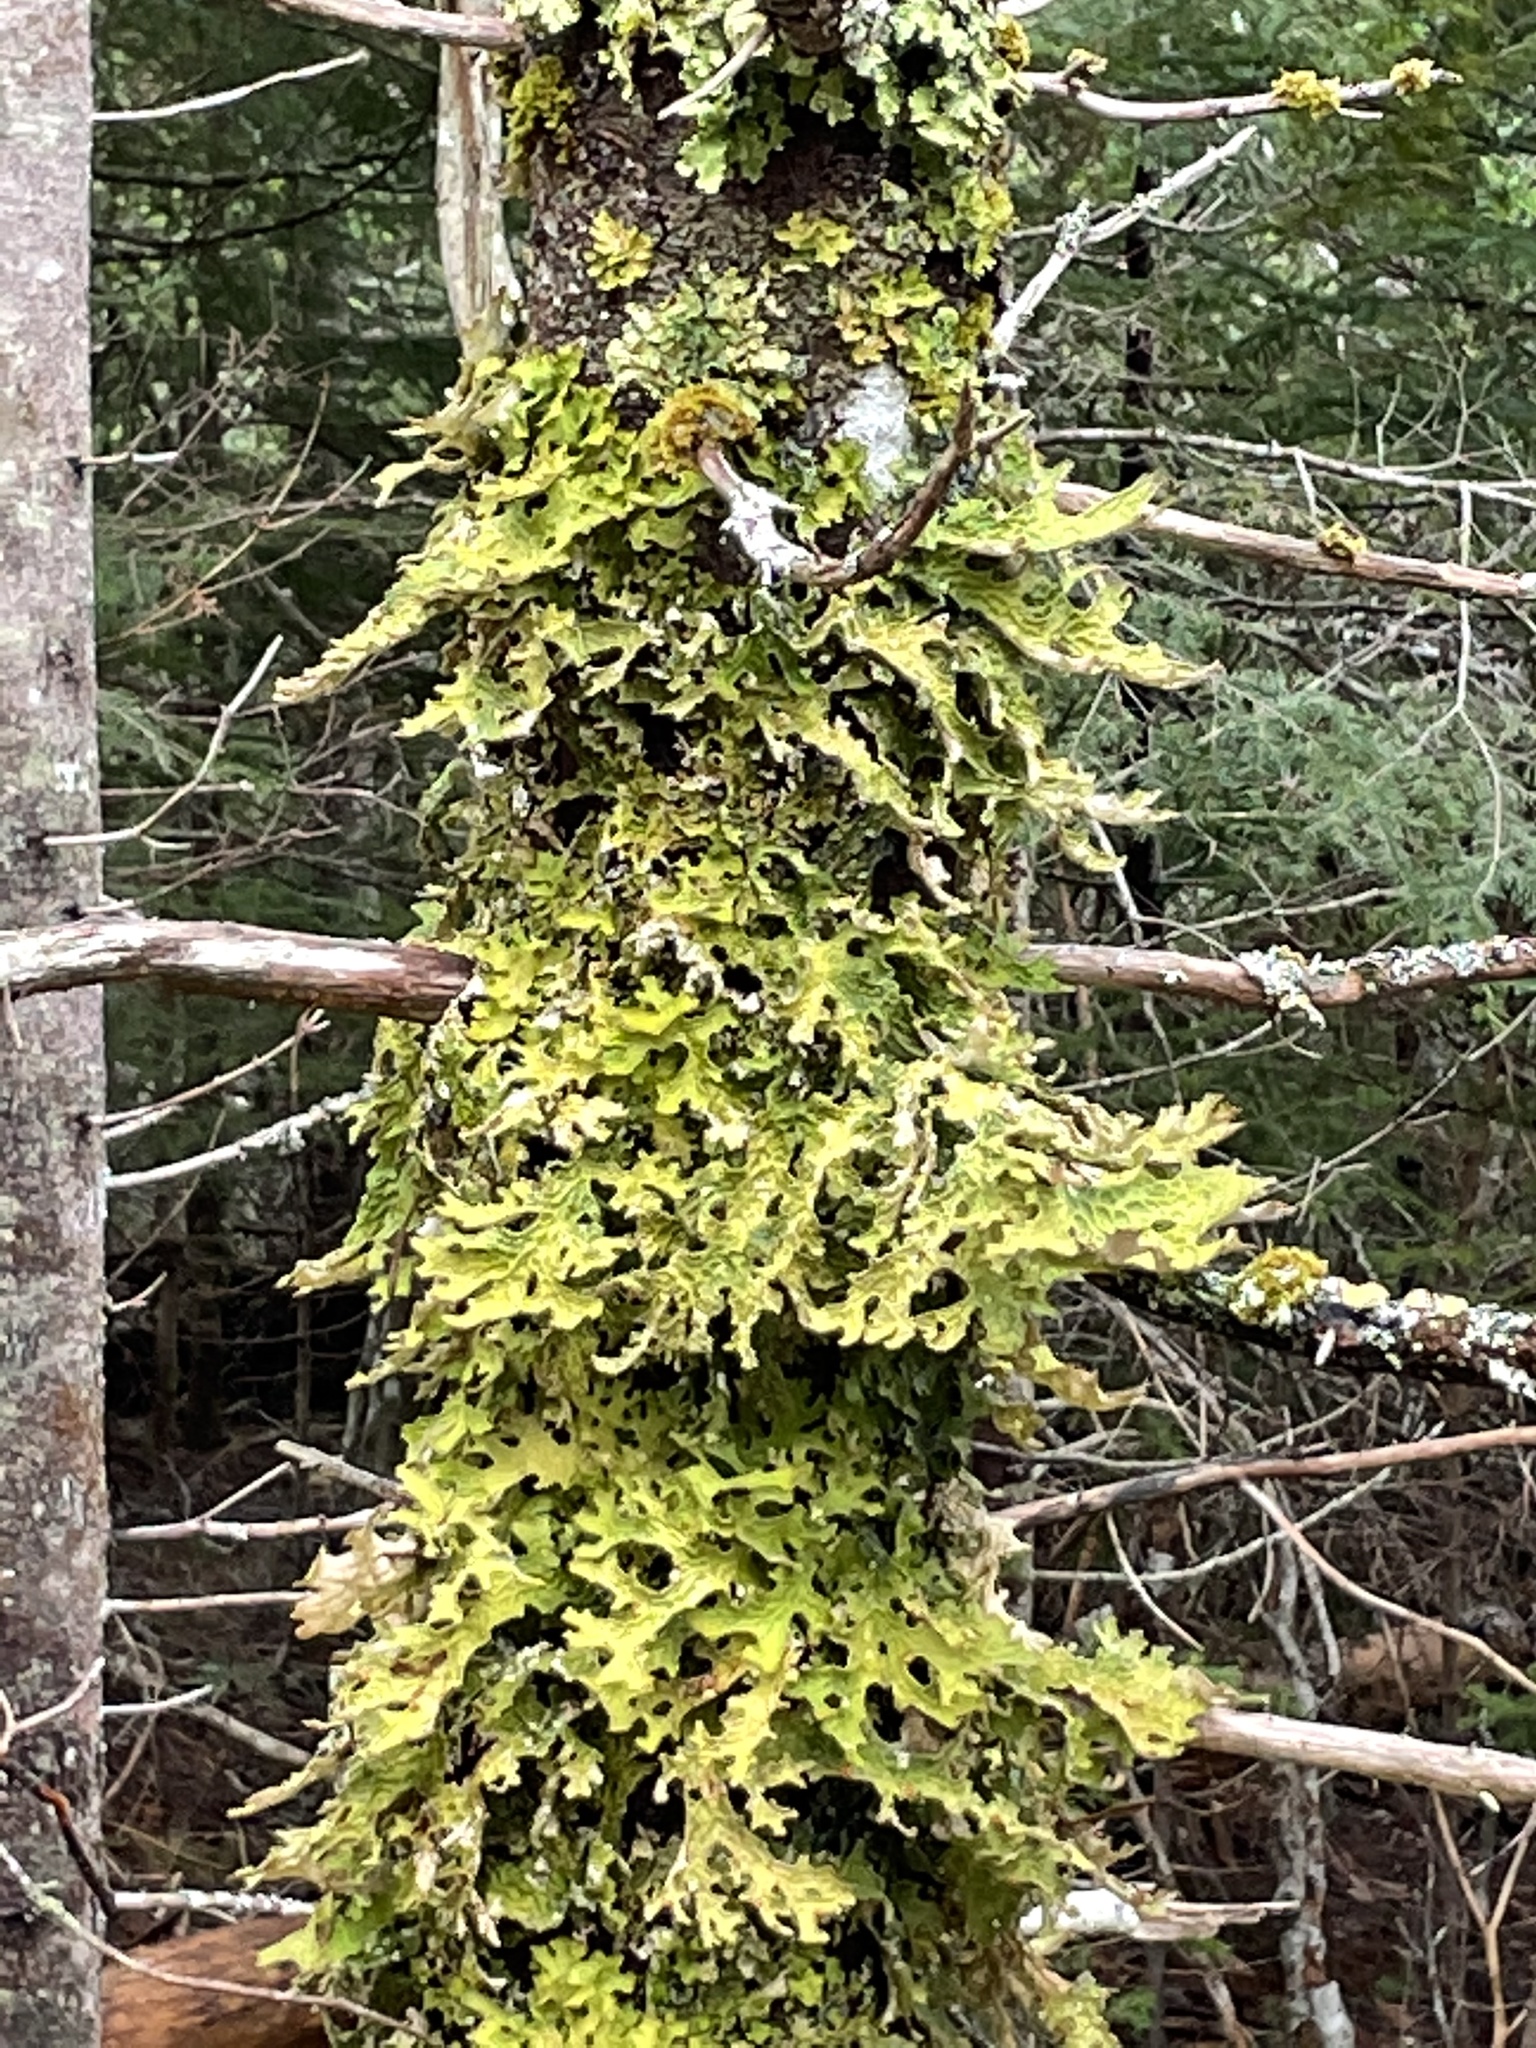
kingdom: Fungi
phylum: Ascomycota
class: Lecanoromycetes
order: Peltigerales
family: Lobariaceae
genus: Lobaria
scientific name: Lobaria pulmonaria
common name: Lungwort
